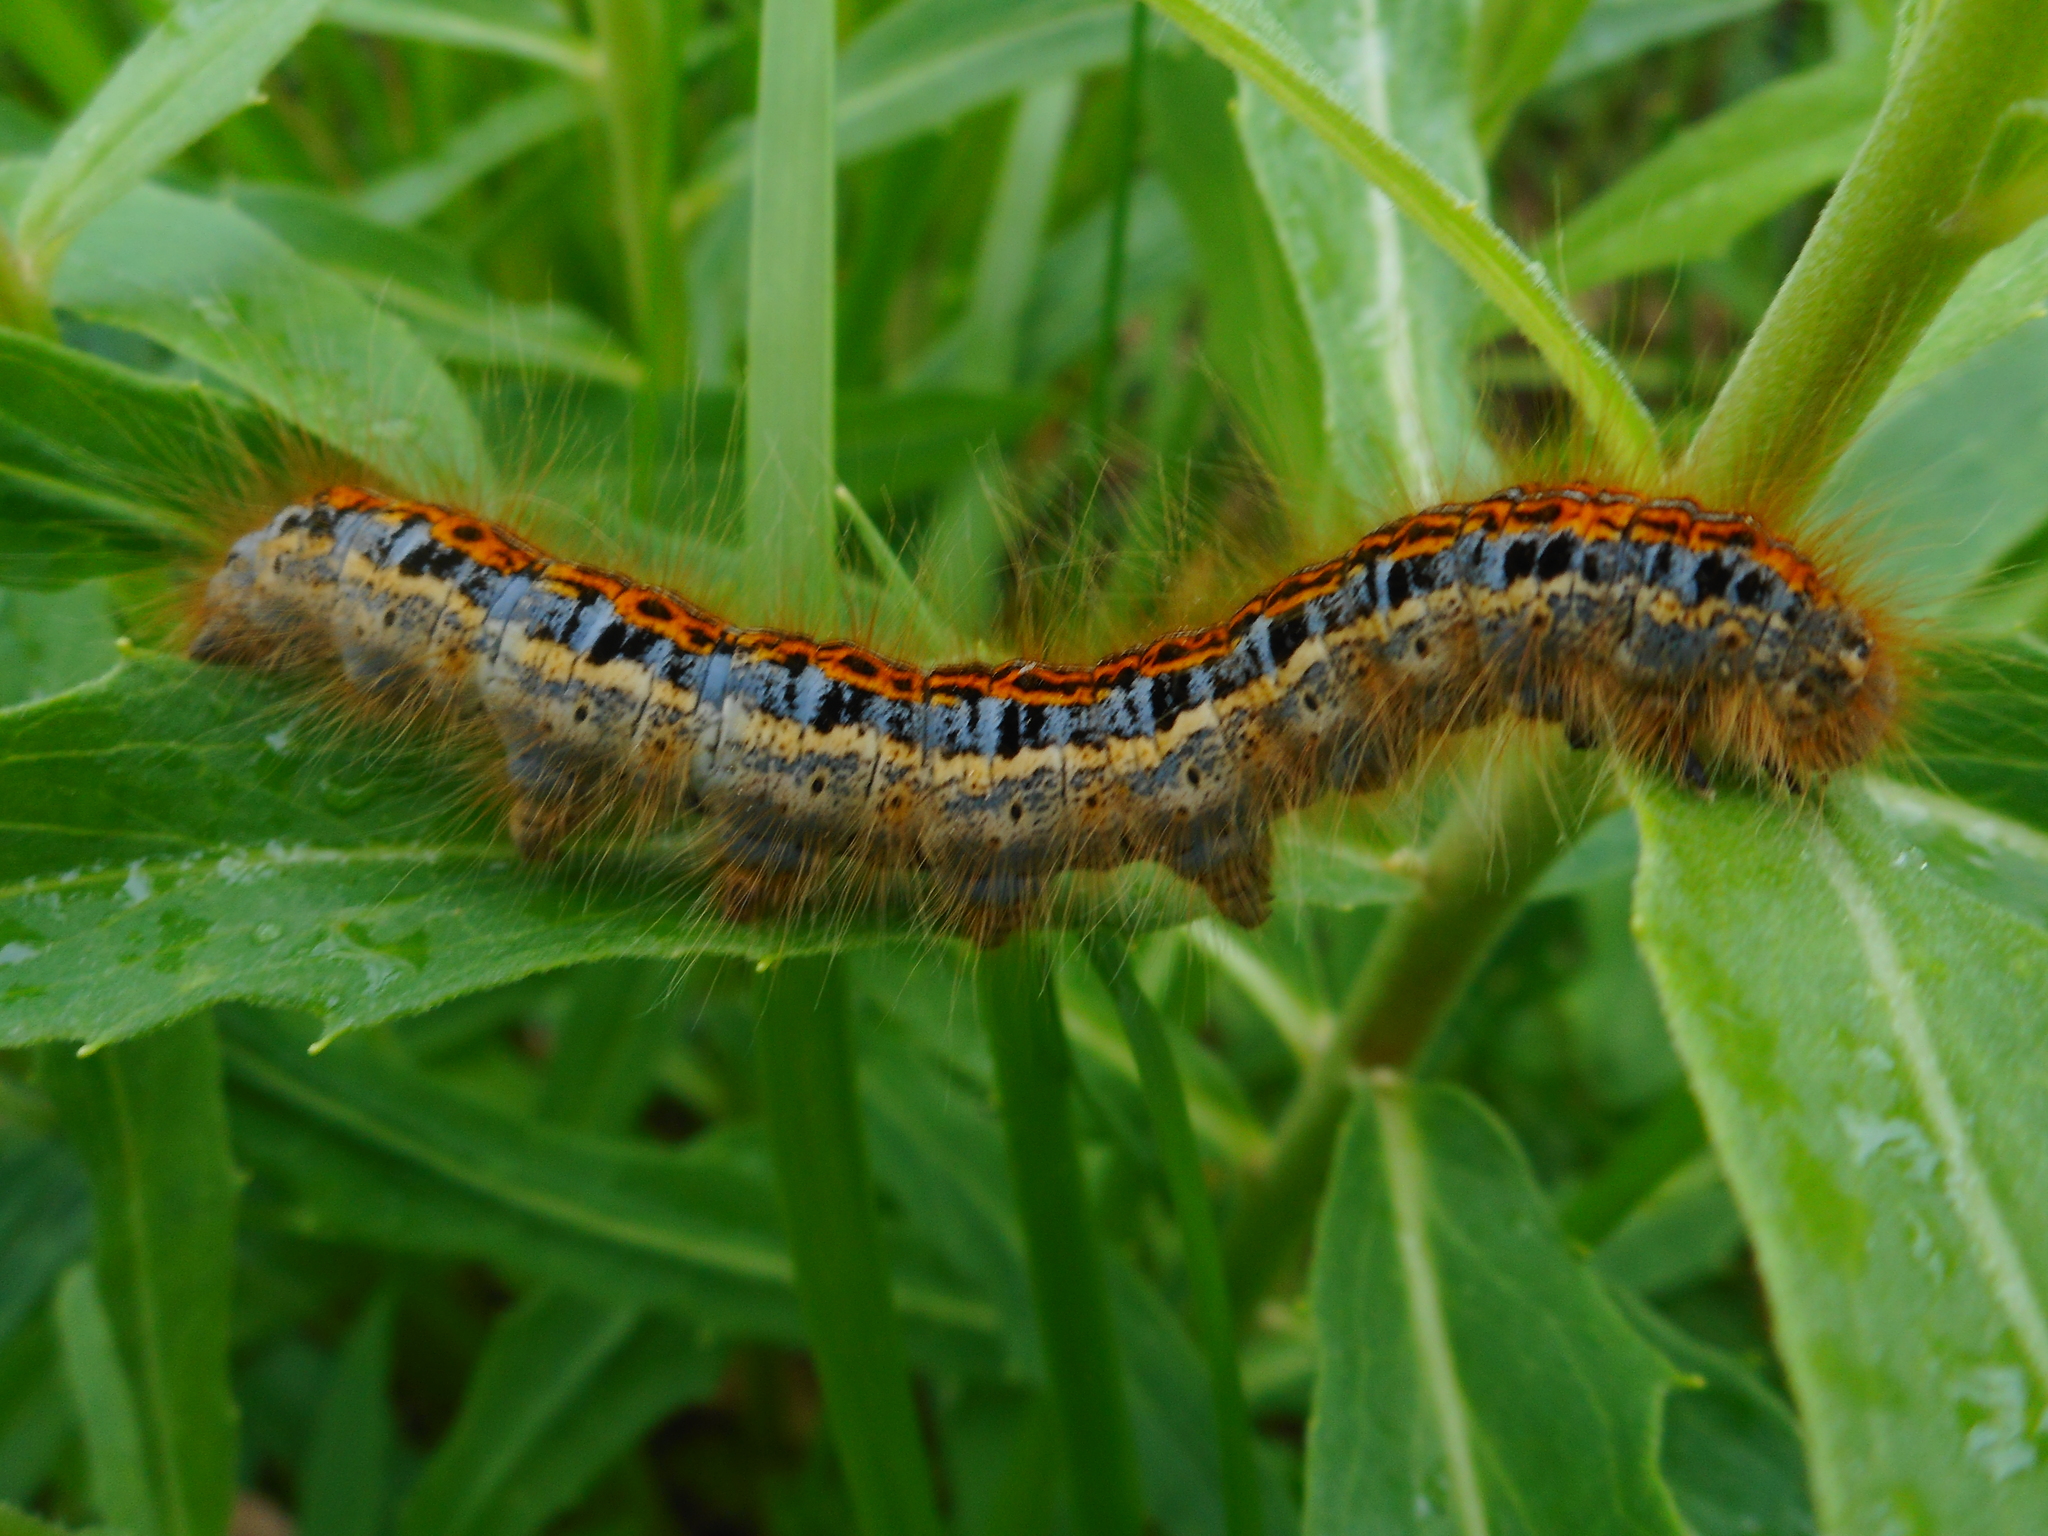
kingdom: Animalia
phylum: Arthropoda
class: Insecta
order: Lepidoptera
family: Lasiocampidae
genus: Malacosoma
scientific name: Malacosoma castrense
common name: Ground lackey
